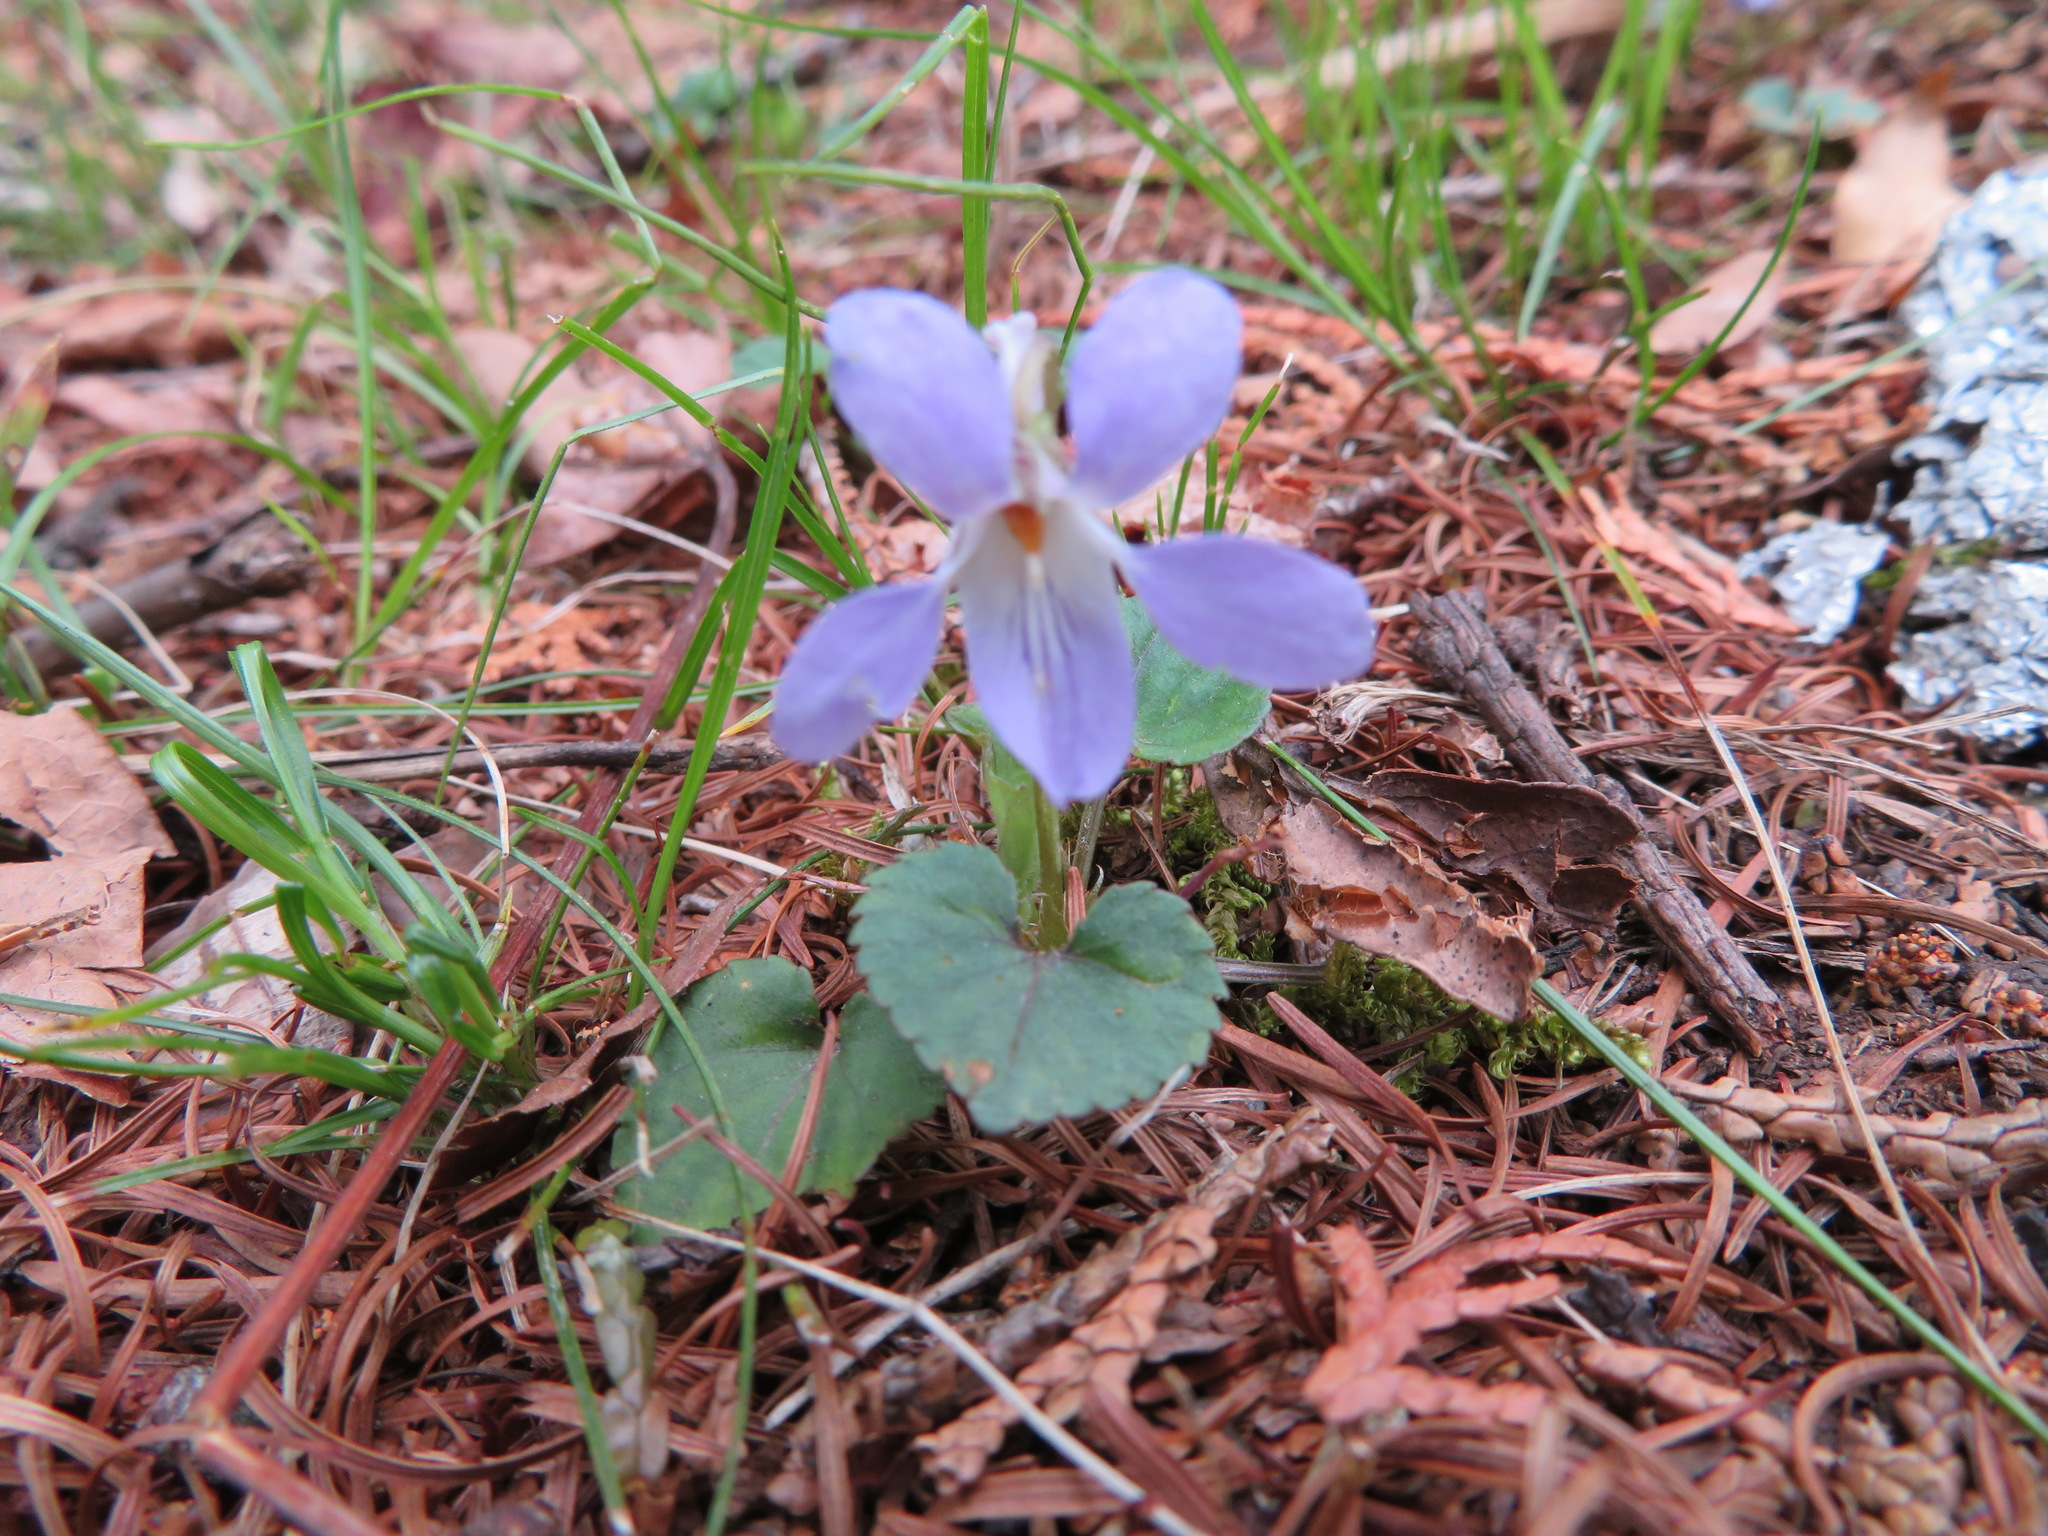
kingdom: Plantae
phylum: Tracheophyta
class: Magnoliopsida
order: Malpighiales
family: Violaceae
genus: Viola
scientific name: Viola grypoceras
